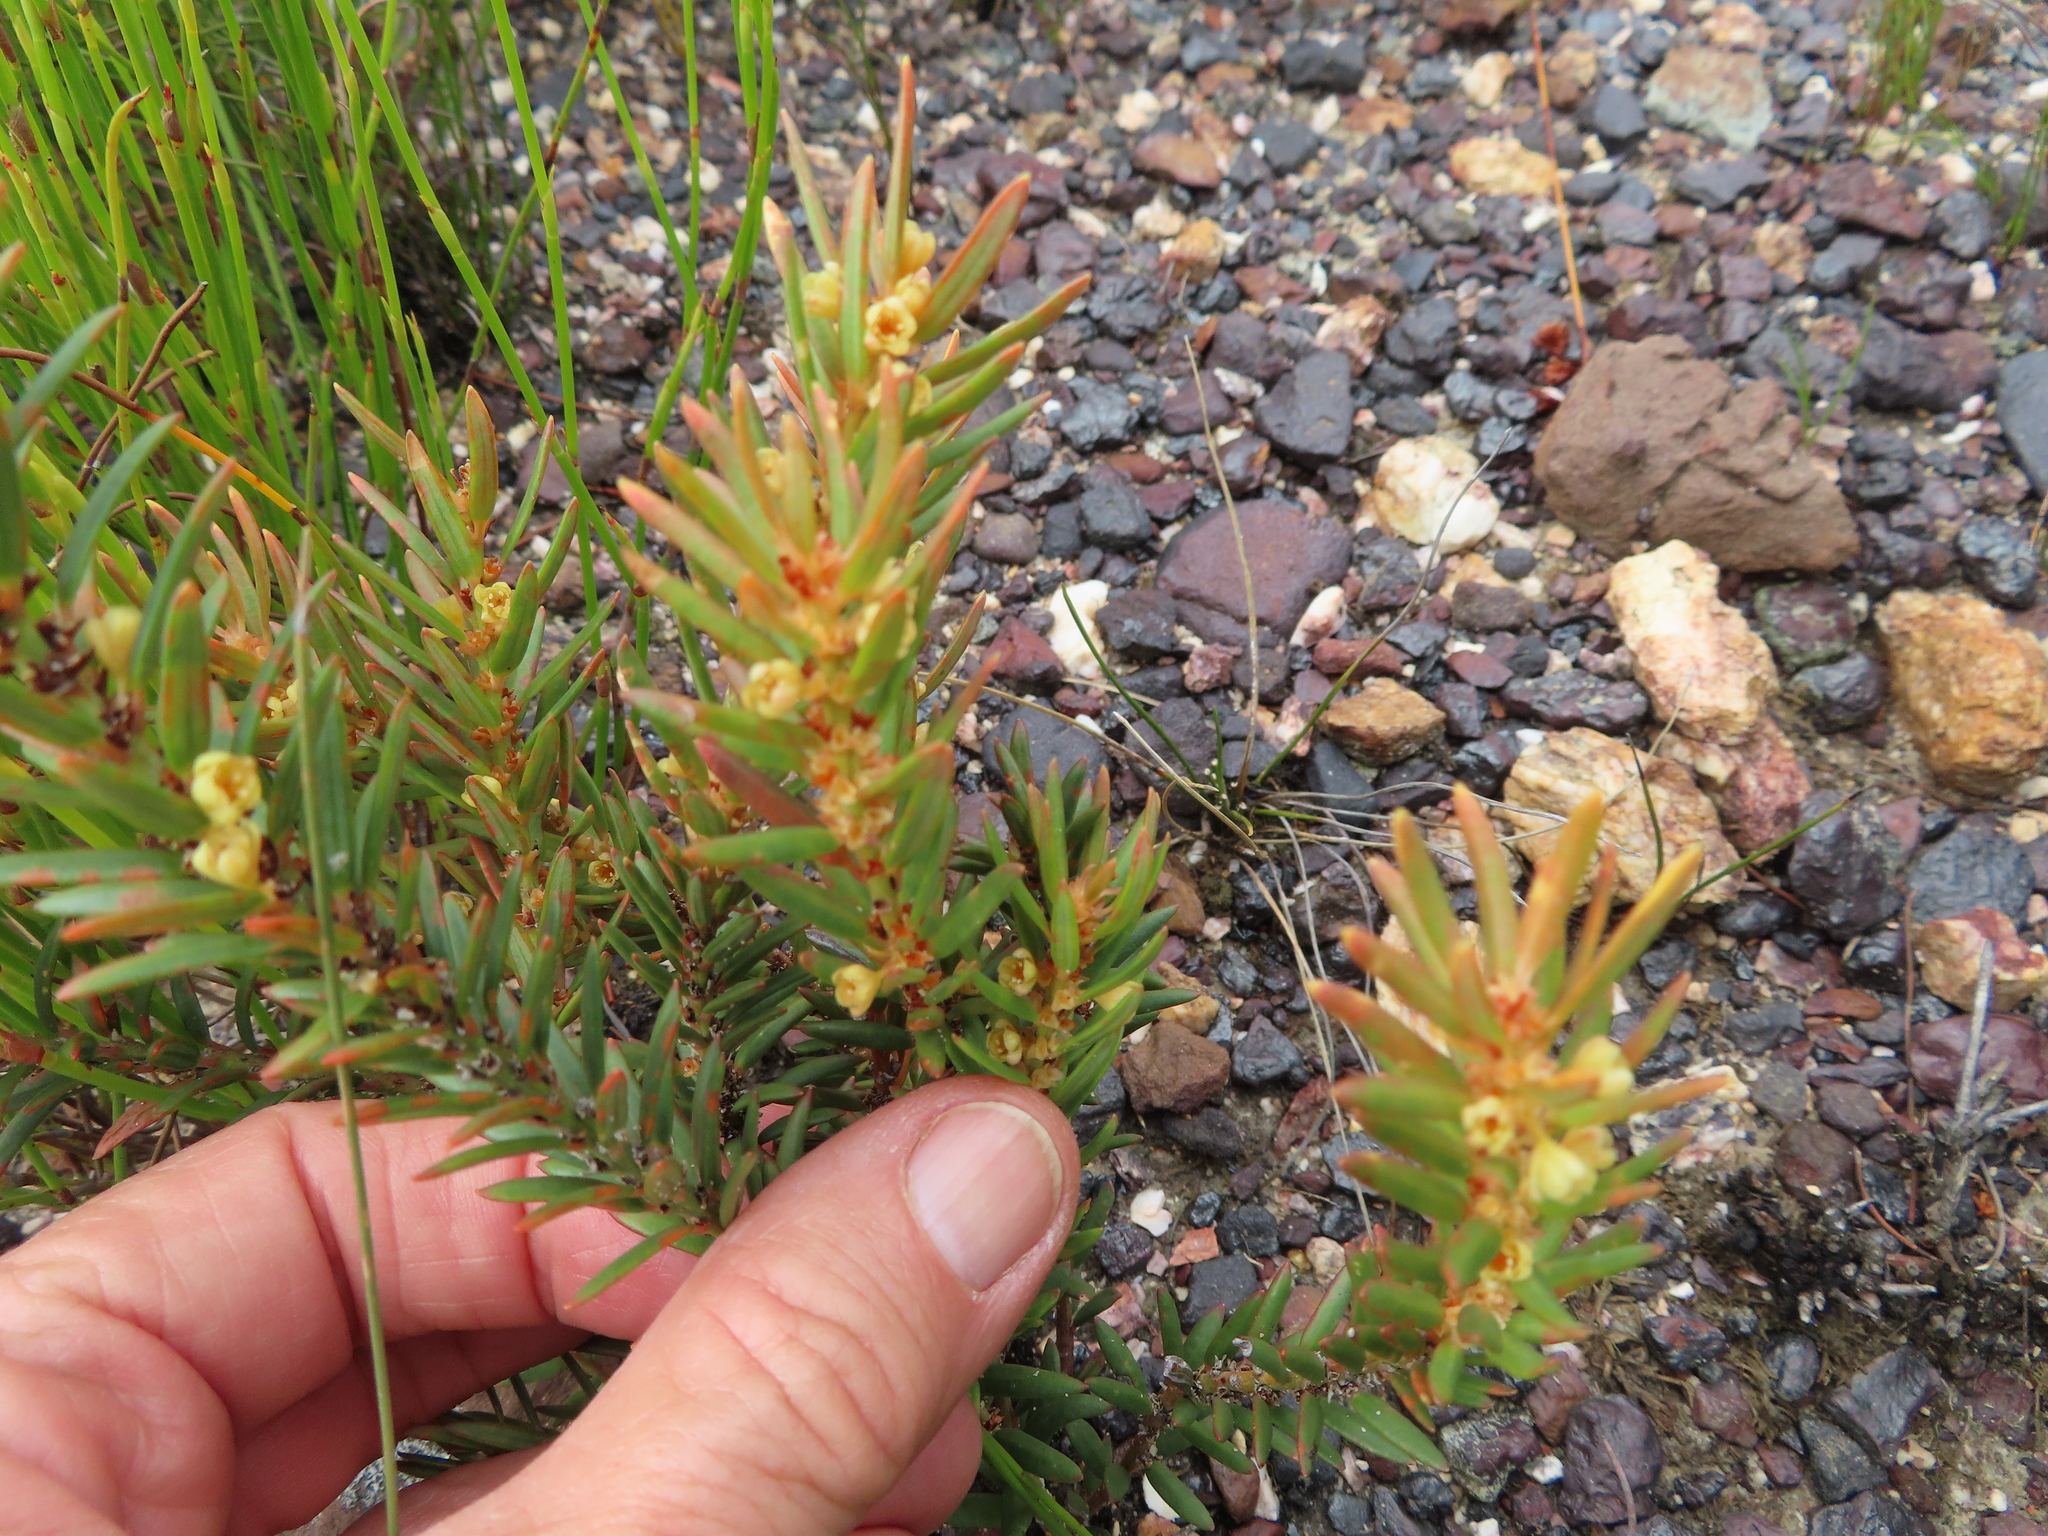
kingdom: Plantae
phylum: Tracheophyta
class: Magnoliopsida
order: Malpighiales
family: Peraceae
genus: Clutia
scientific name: Clutia polygonoides
